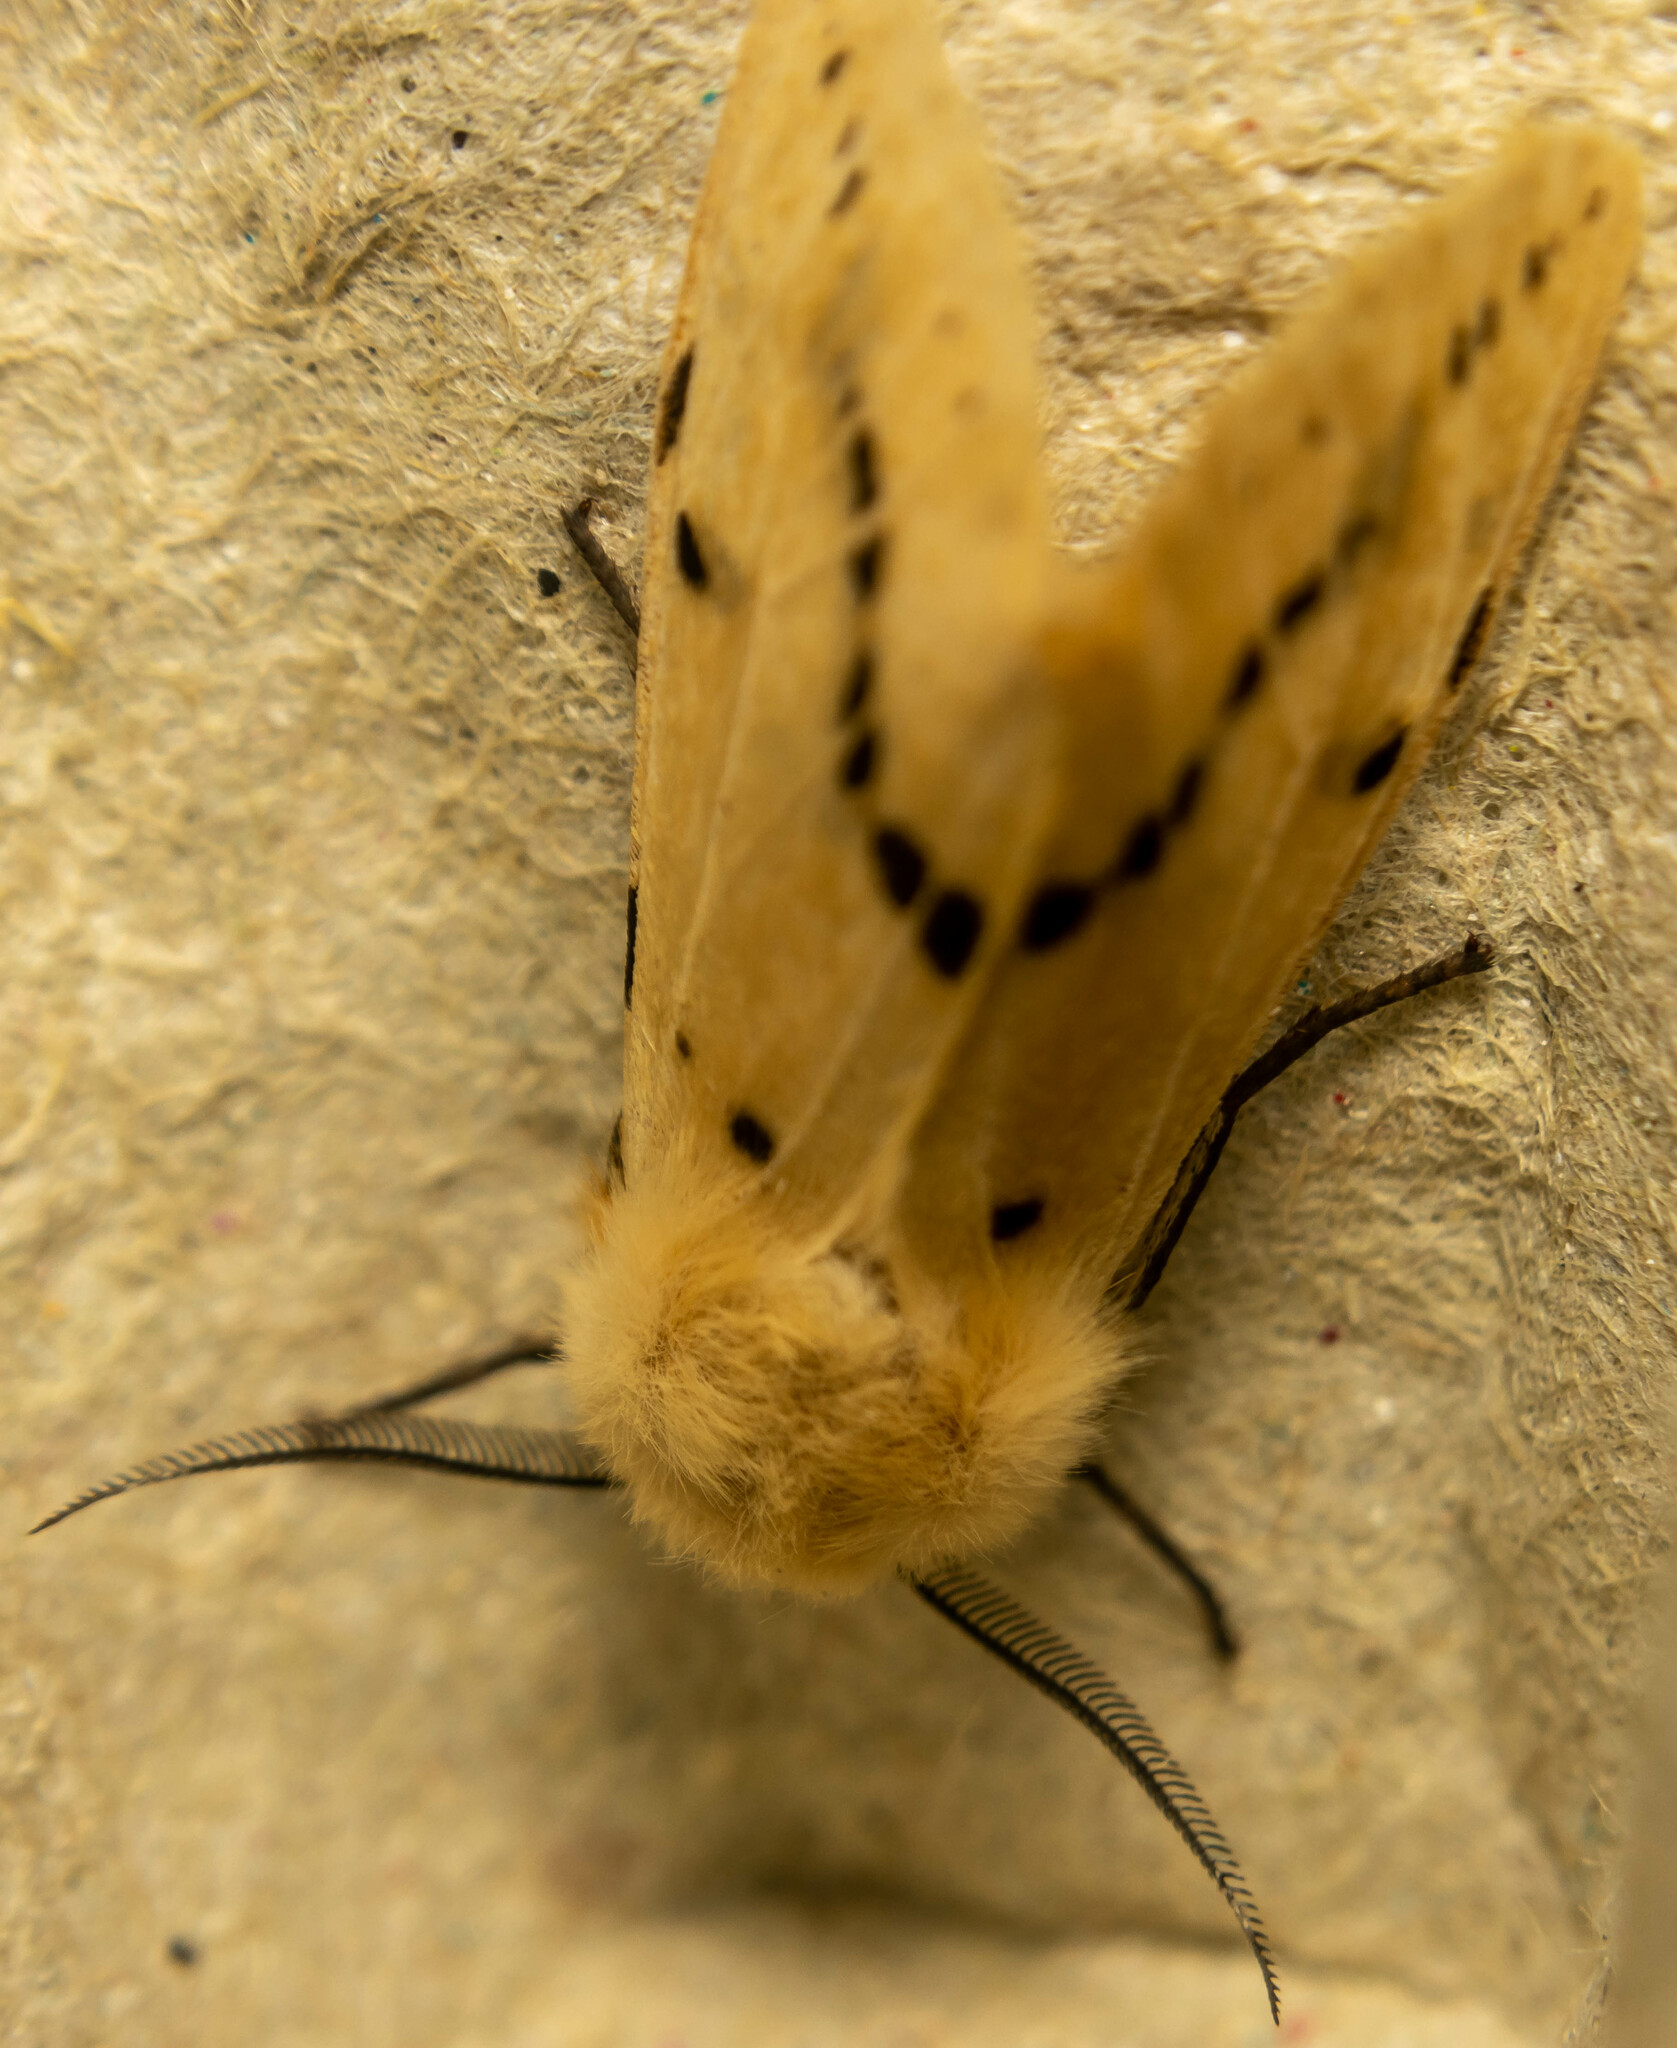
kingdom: Animalia
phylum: Arthropoda
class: Insecta
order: Lepidoptera
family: Erebidae
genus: Spilarctia
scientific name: Spilarctia lutea
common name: Buff ermine
